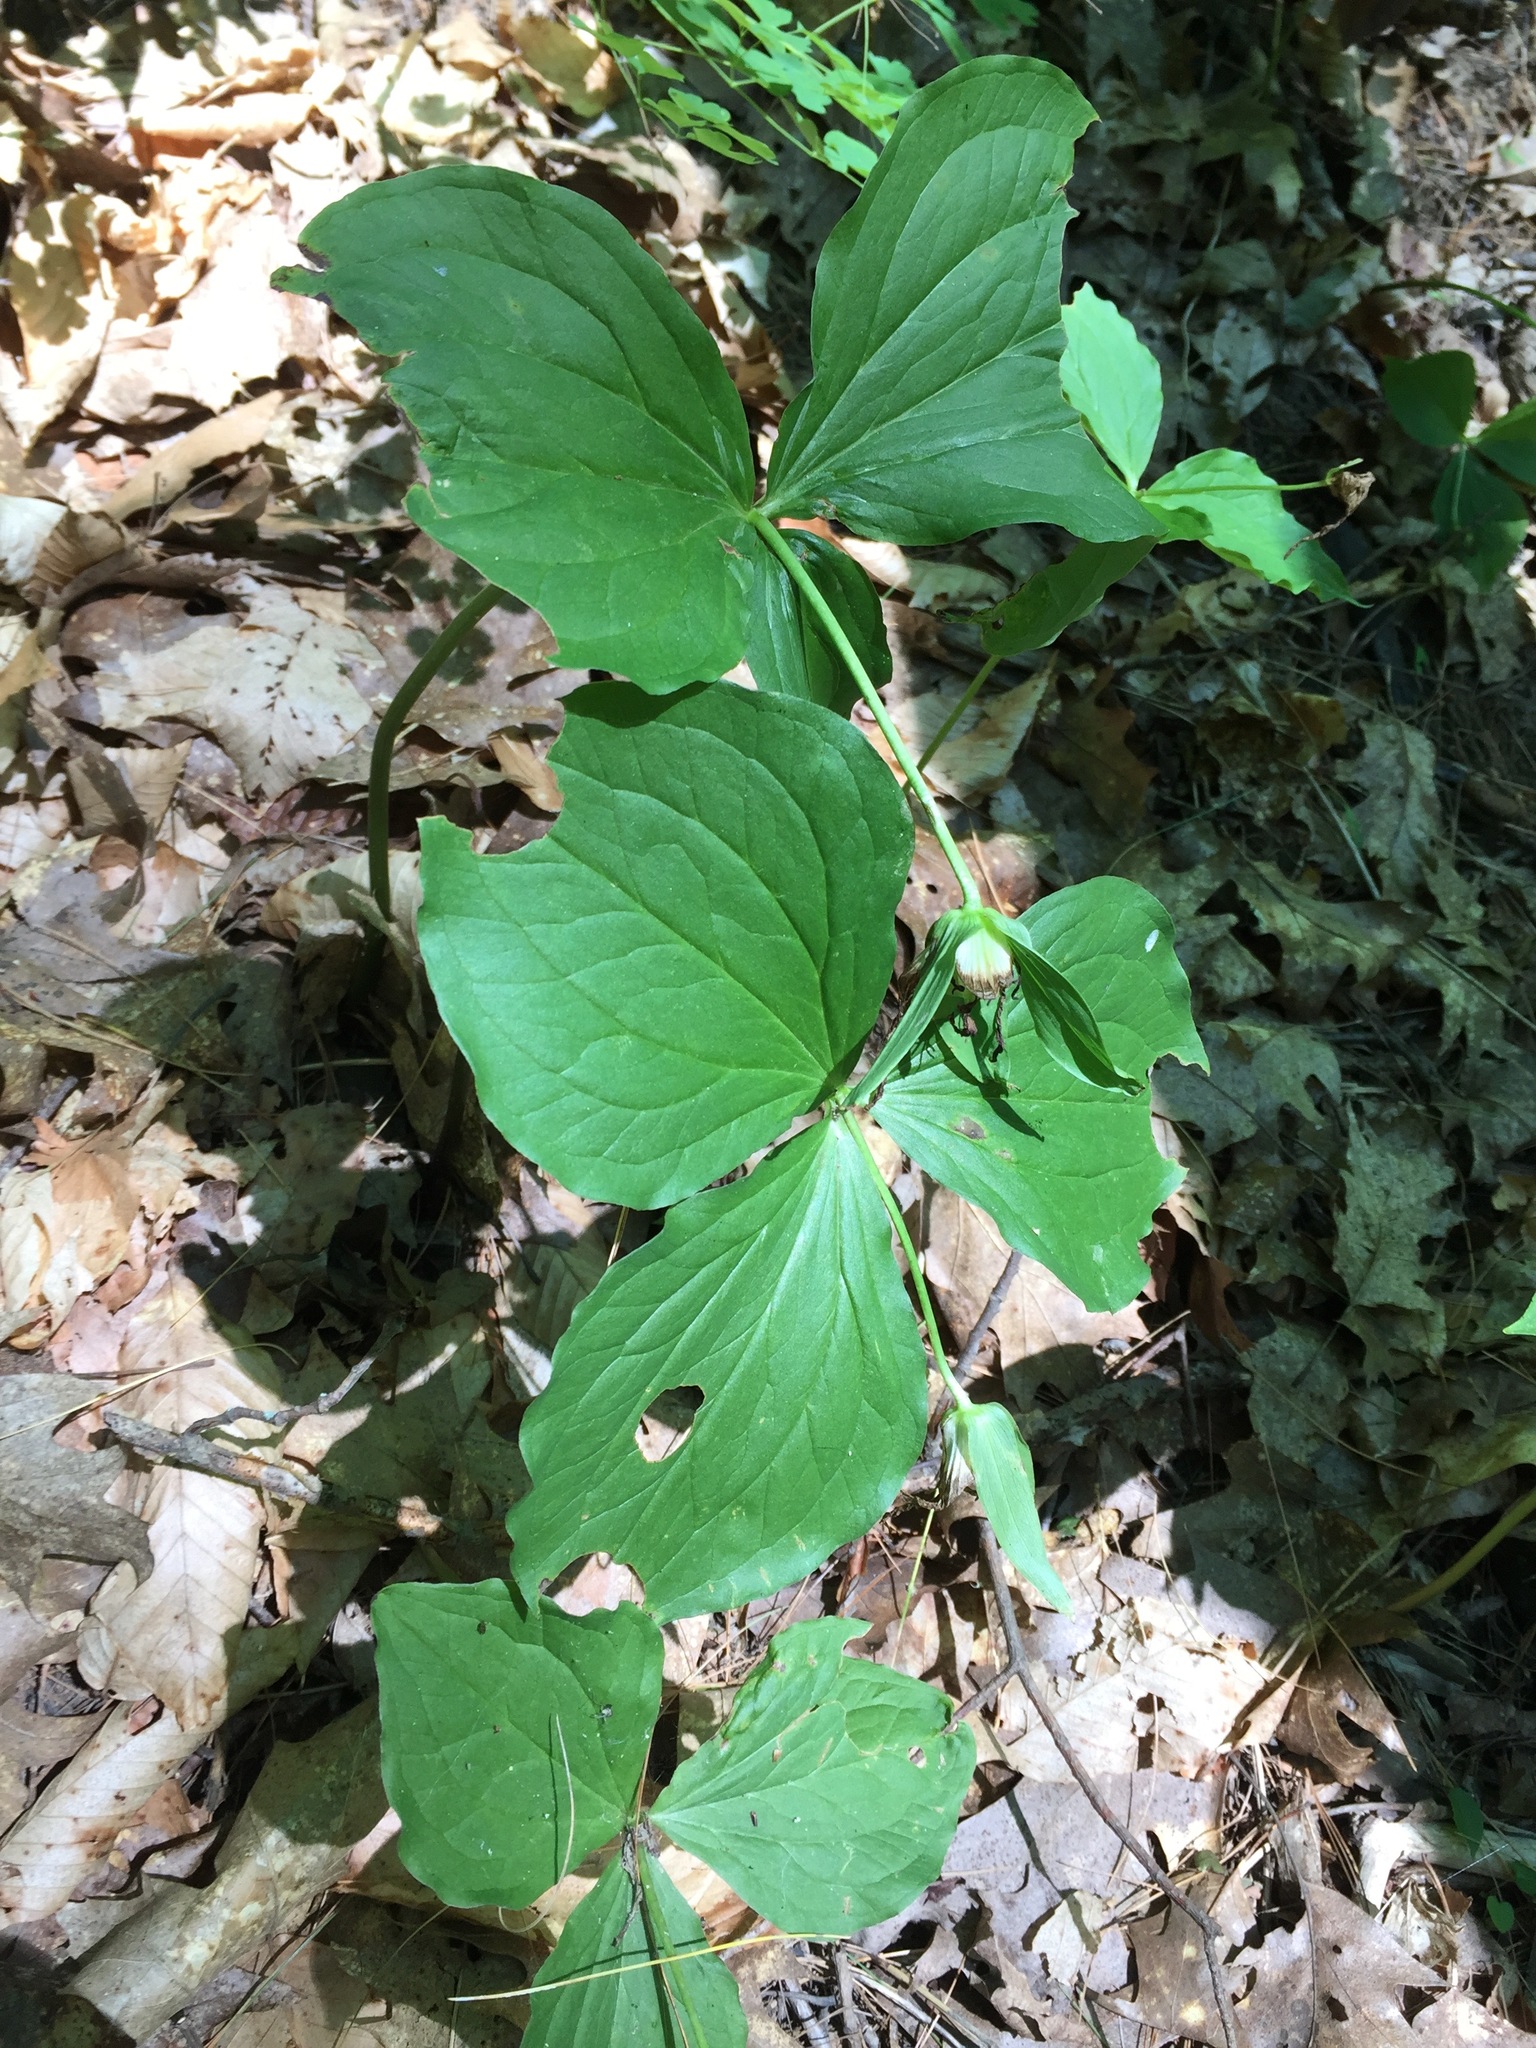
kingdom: Plantae
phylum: Tracheophyta
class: Liliopsida
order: Liliales
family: Melanthiaceae
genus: Trillium
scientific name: Trillium grandiflorum
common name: Great white trillium
